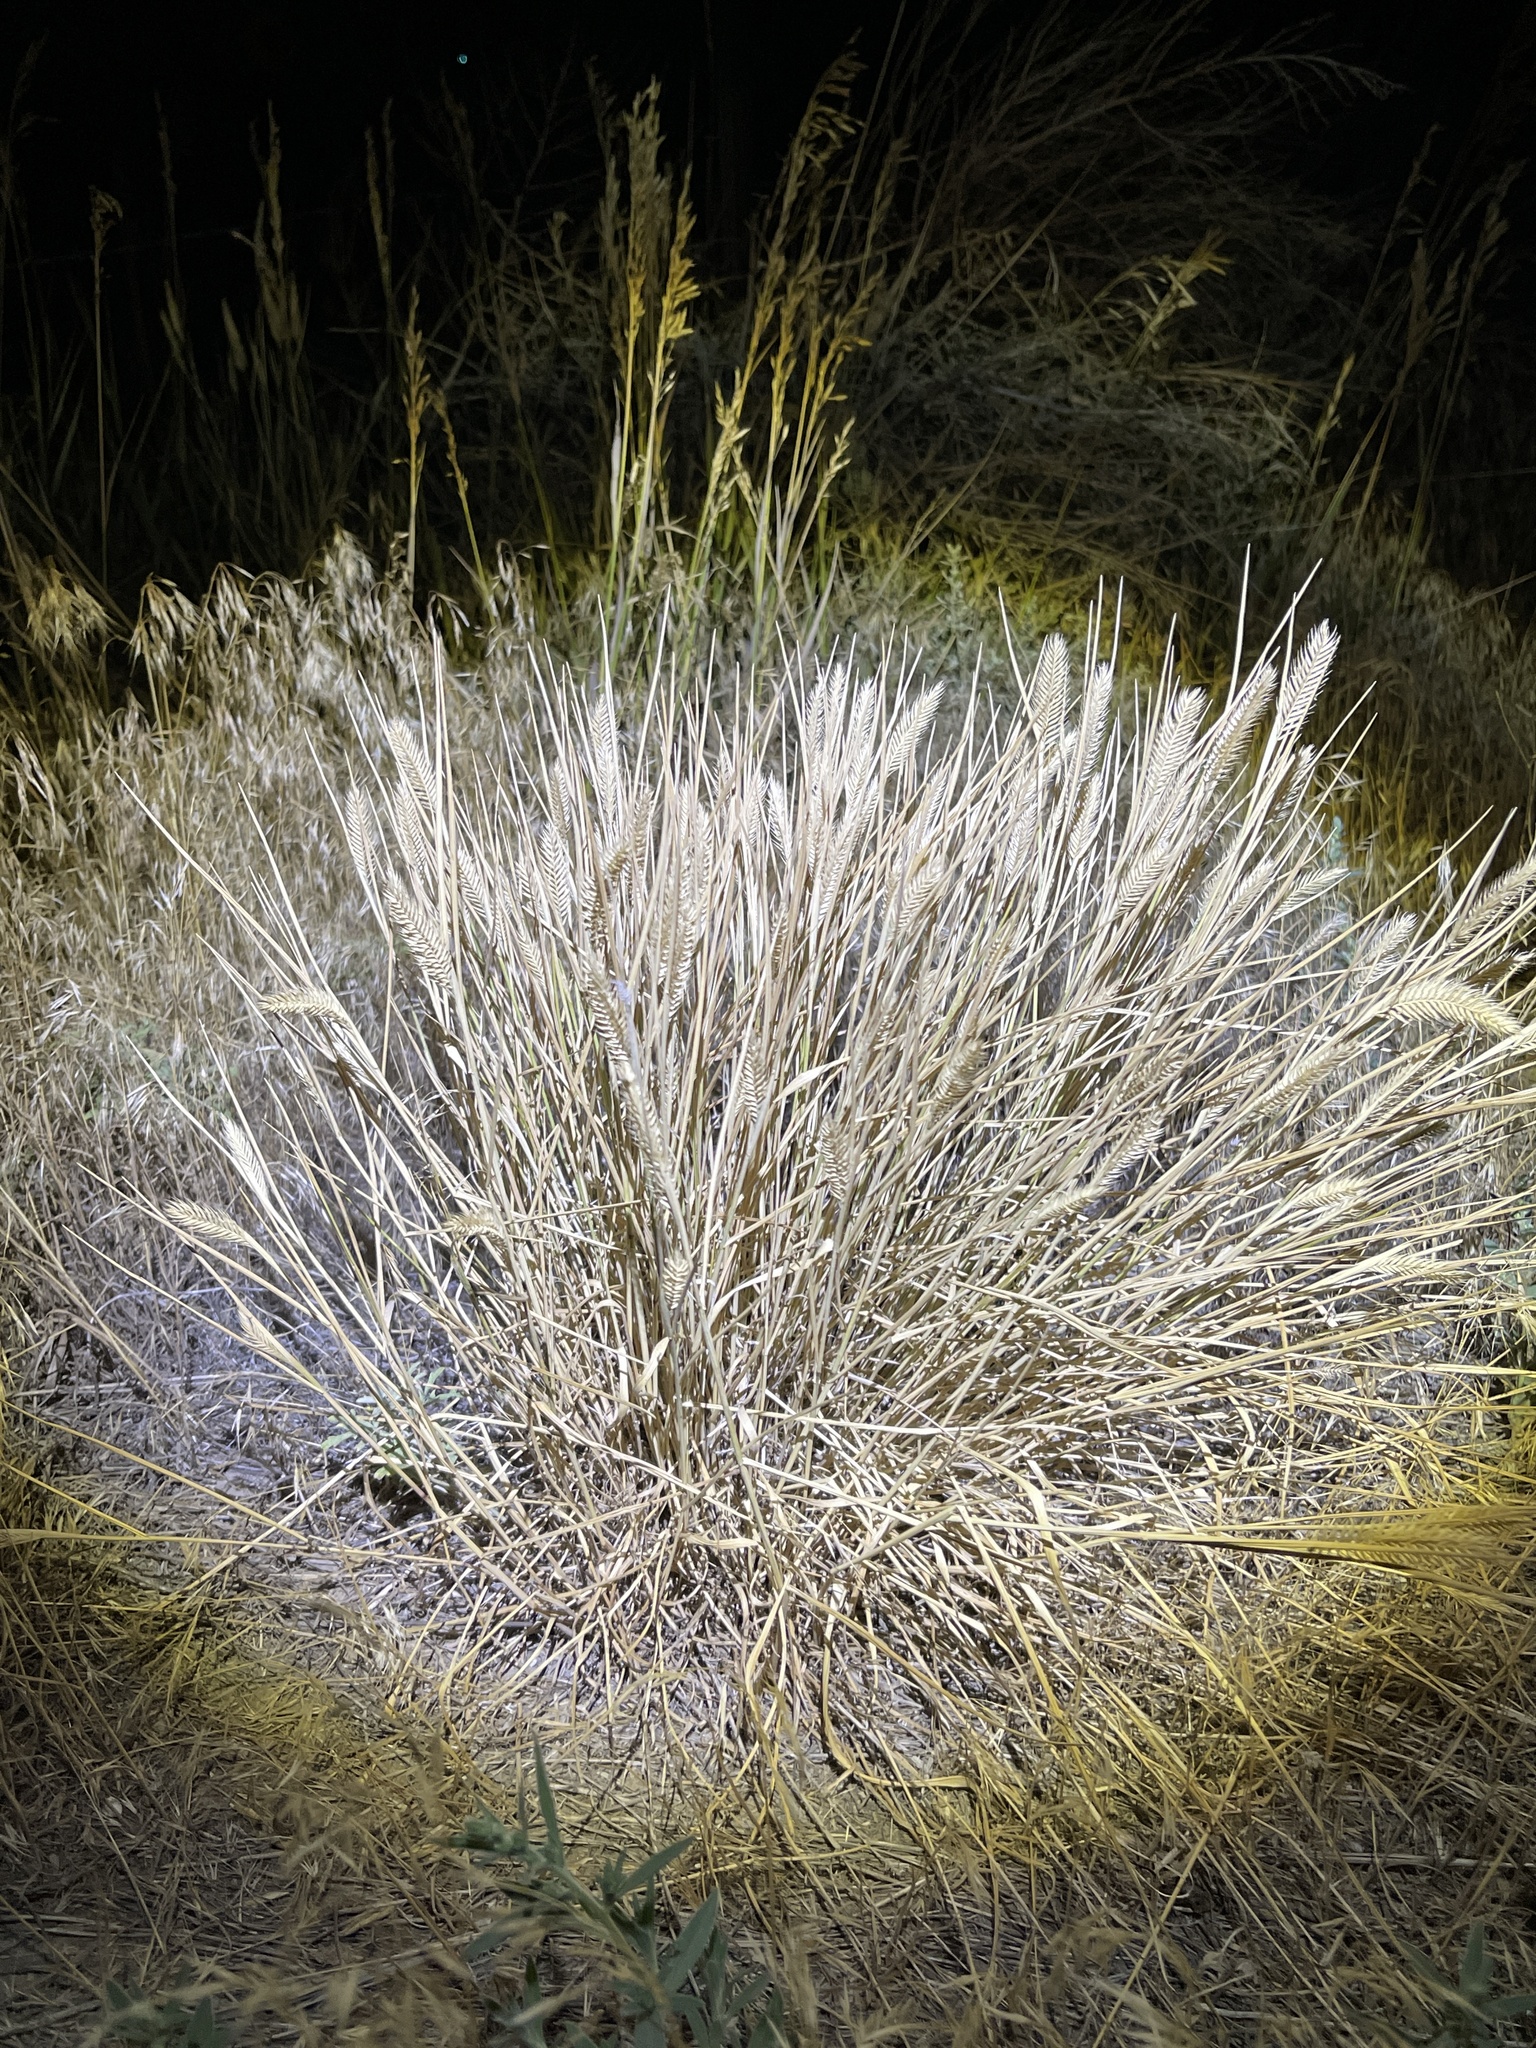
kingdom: Plantae
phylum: Tracheophyta
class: Liliopsida
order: Poales
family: Poaceae
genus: Agropyron
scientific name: Agropyron cristatum
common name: Crested wheatgrass
